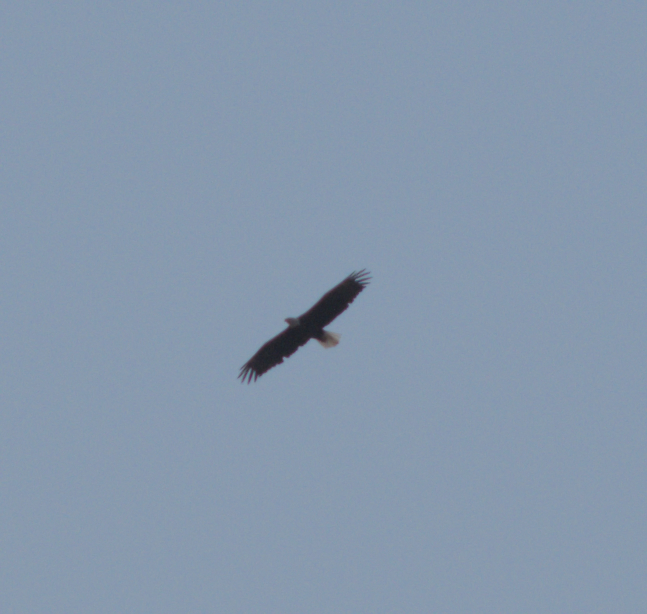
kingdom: Animalia
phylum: Chordata
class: Aves
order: Accipitriformes
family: Accipitridae
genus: Haliaeetus
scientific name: Haliaeetus leucocephalus
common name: Bald eagle
